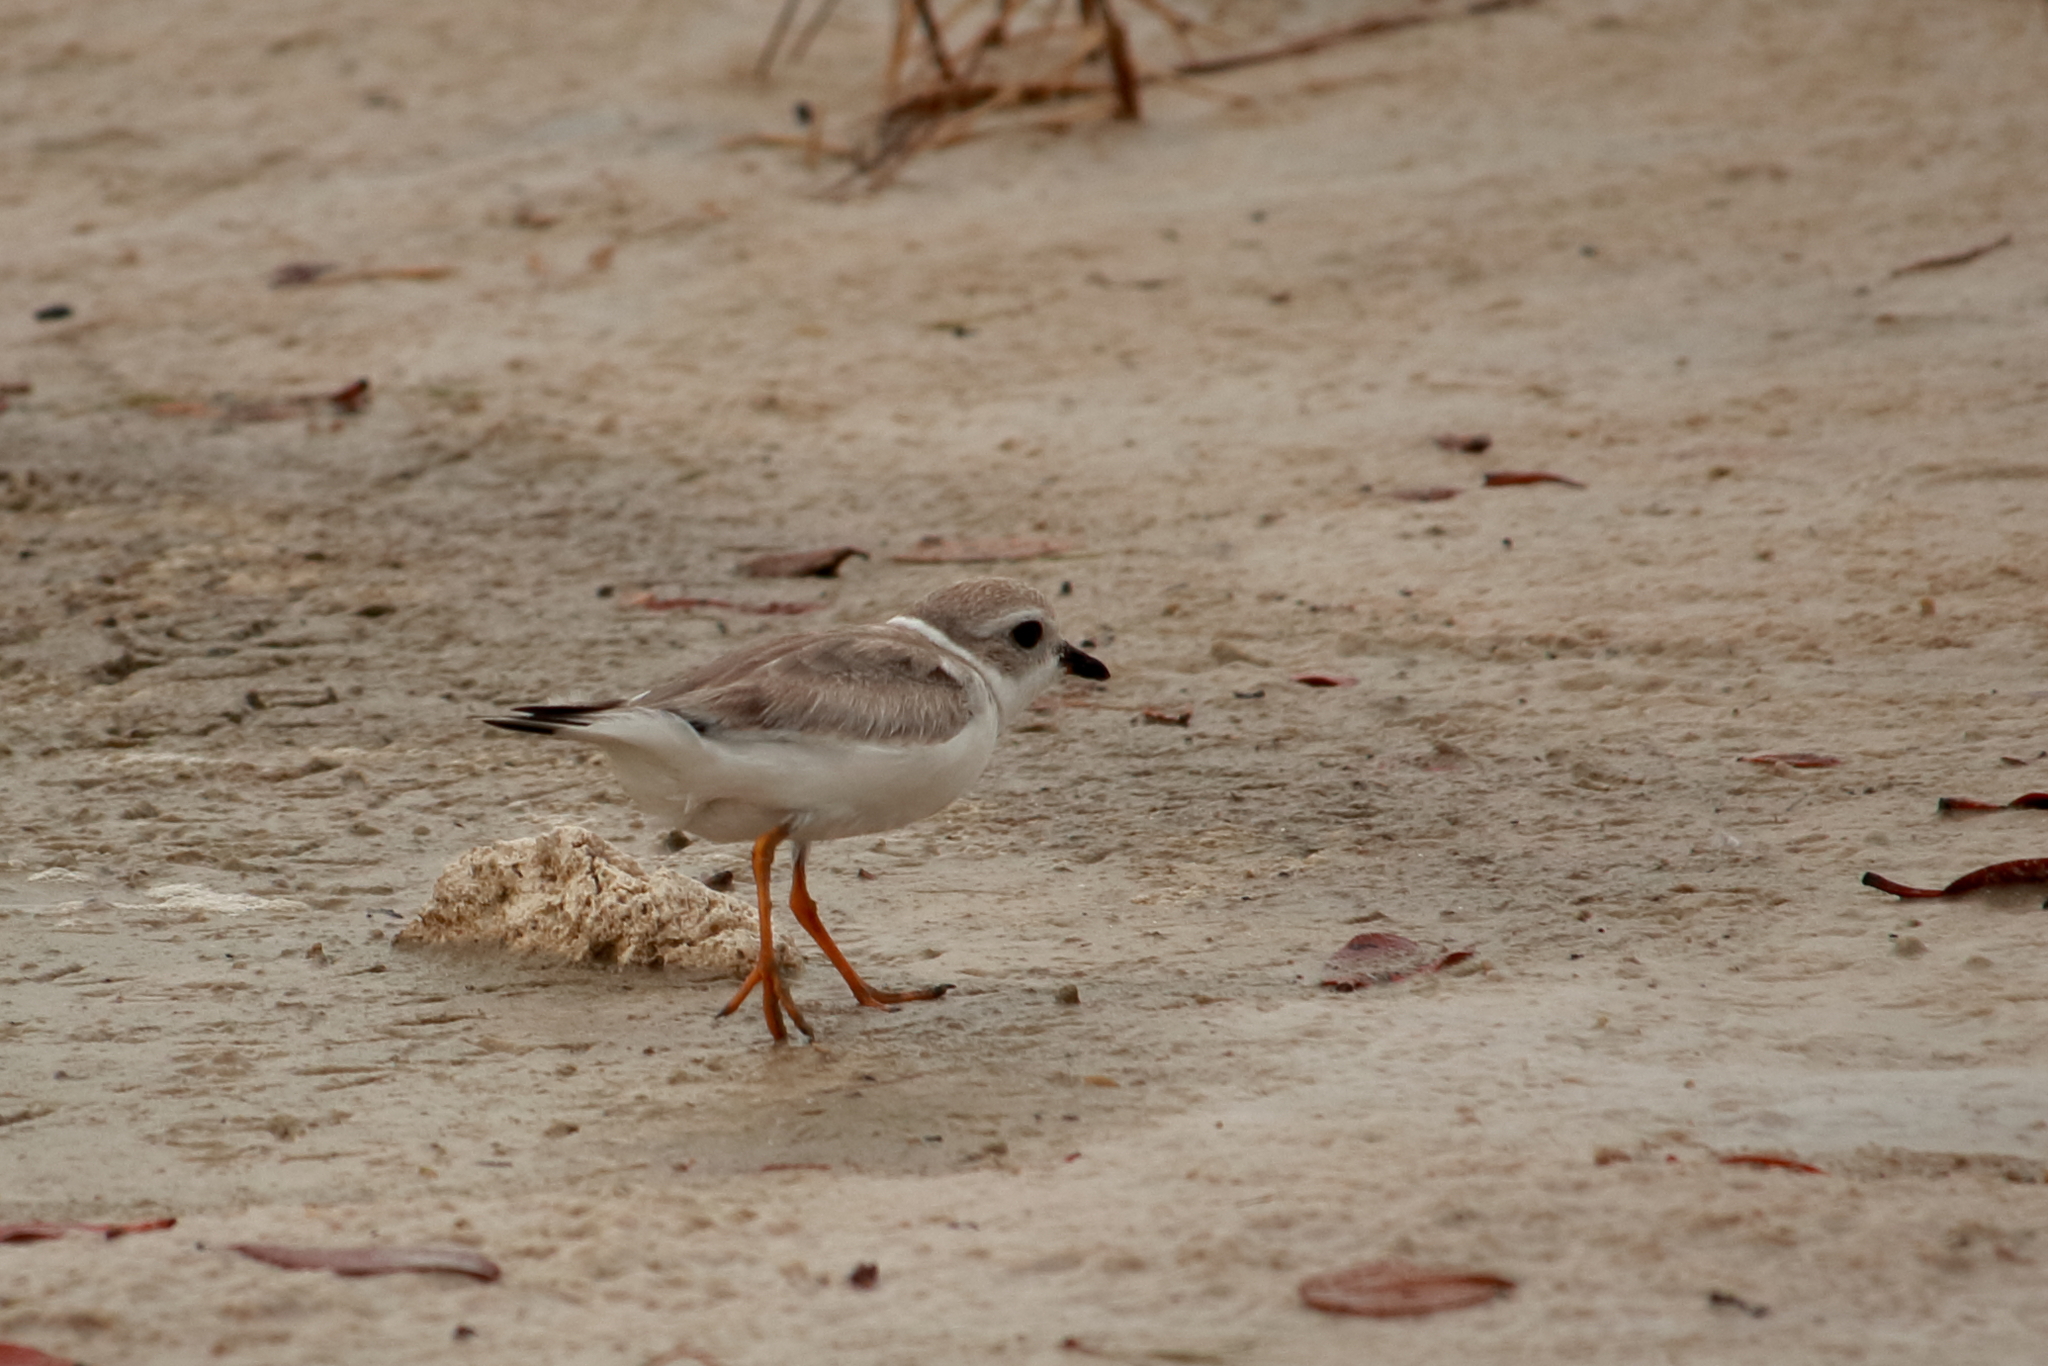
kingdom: Animalia
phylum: Chordata
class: Aves
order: Charadriiformes
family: Charadriidae
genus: Charadrius
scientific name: Charadrius melodus
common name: Piping plover
